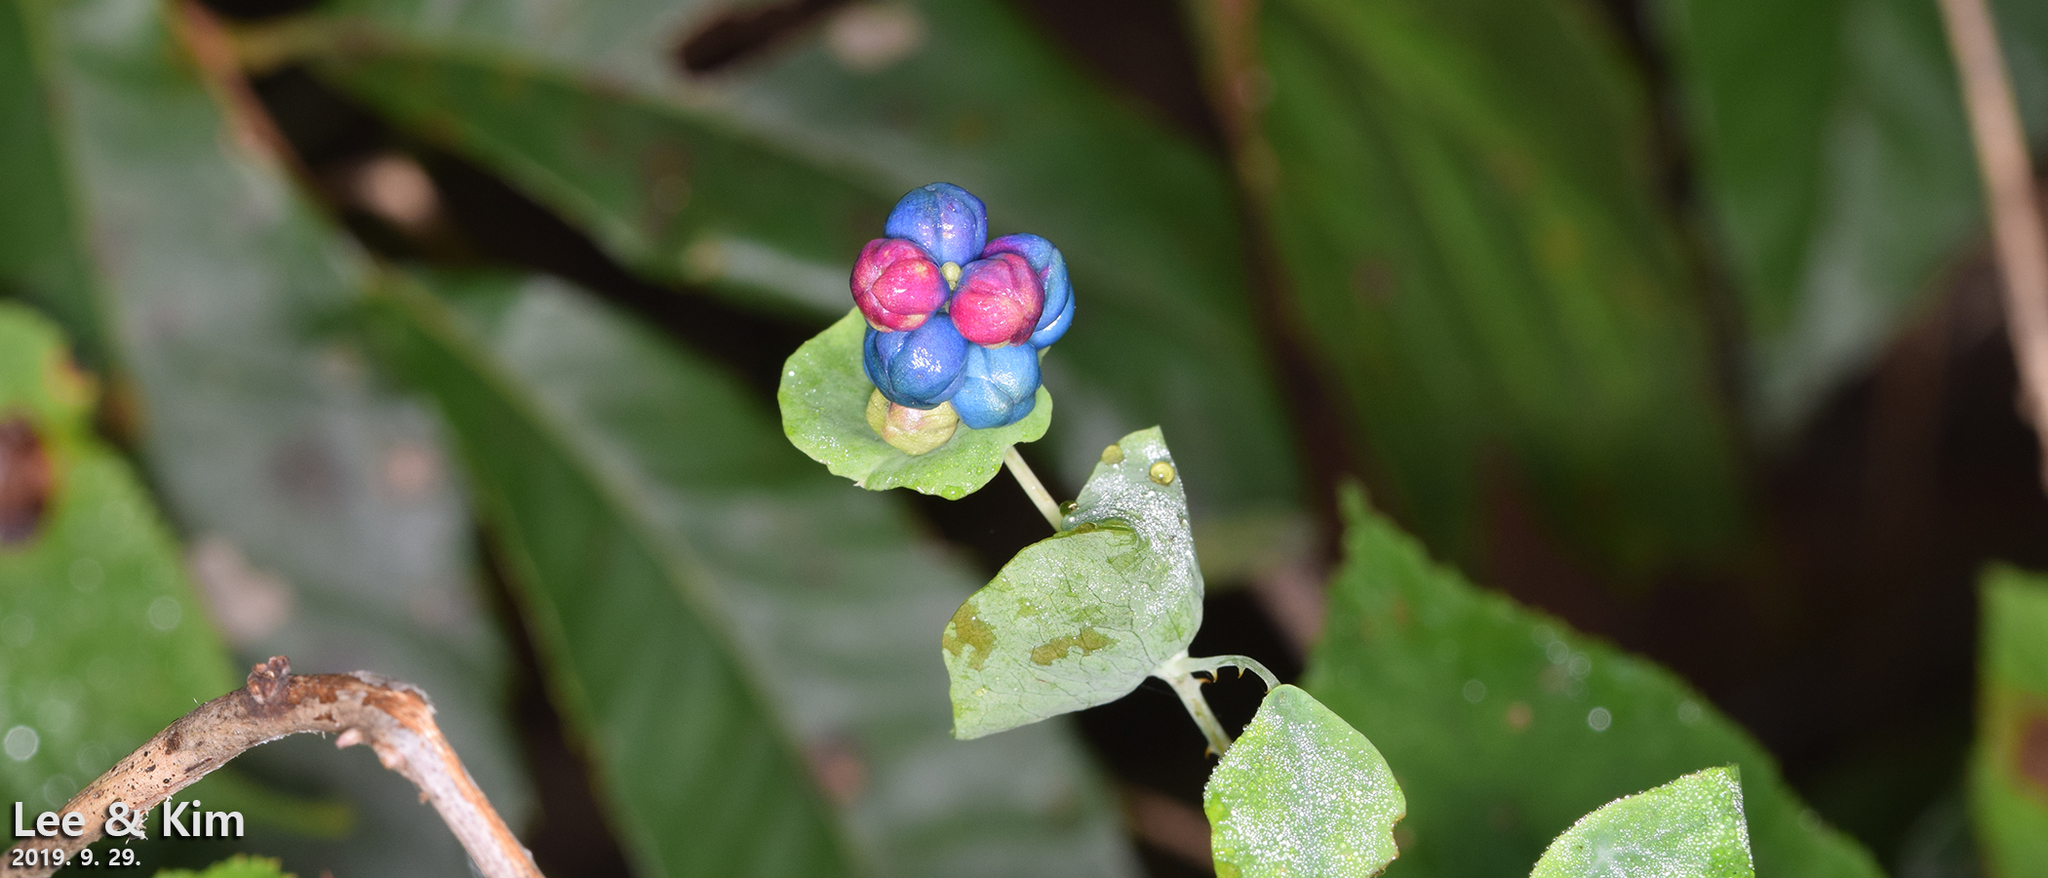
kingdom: Plantae
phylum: Tracheophyta
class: Magnoliopsida
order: Caryophyllales
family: Polygonaceae
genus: Persicaria
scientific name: Persicaria perfoliata
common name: Asiatic tearthumb
